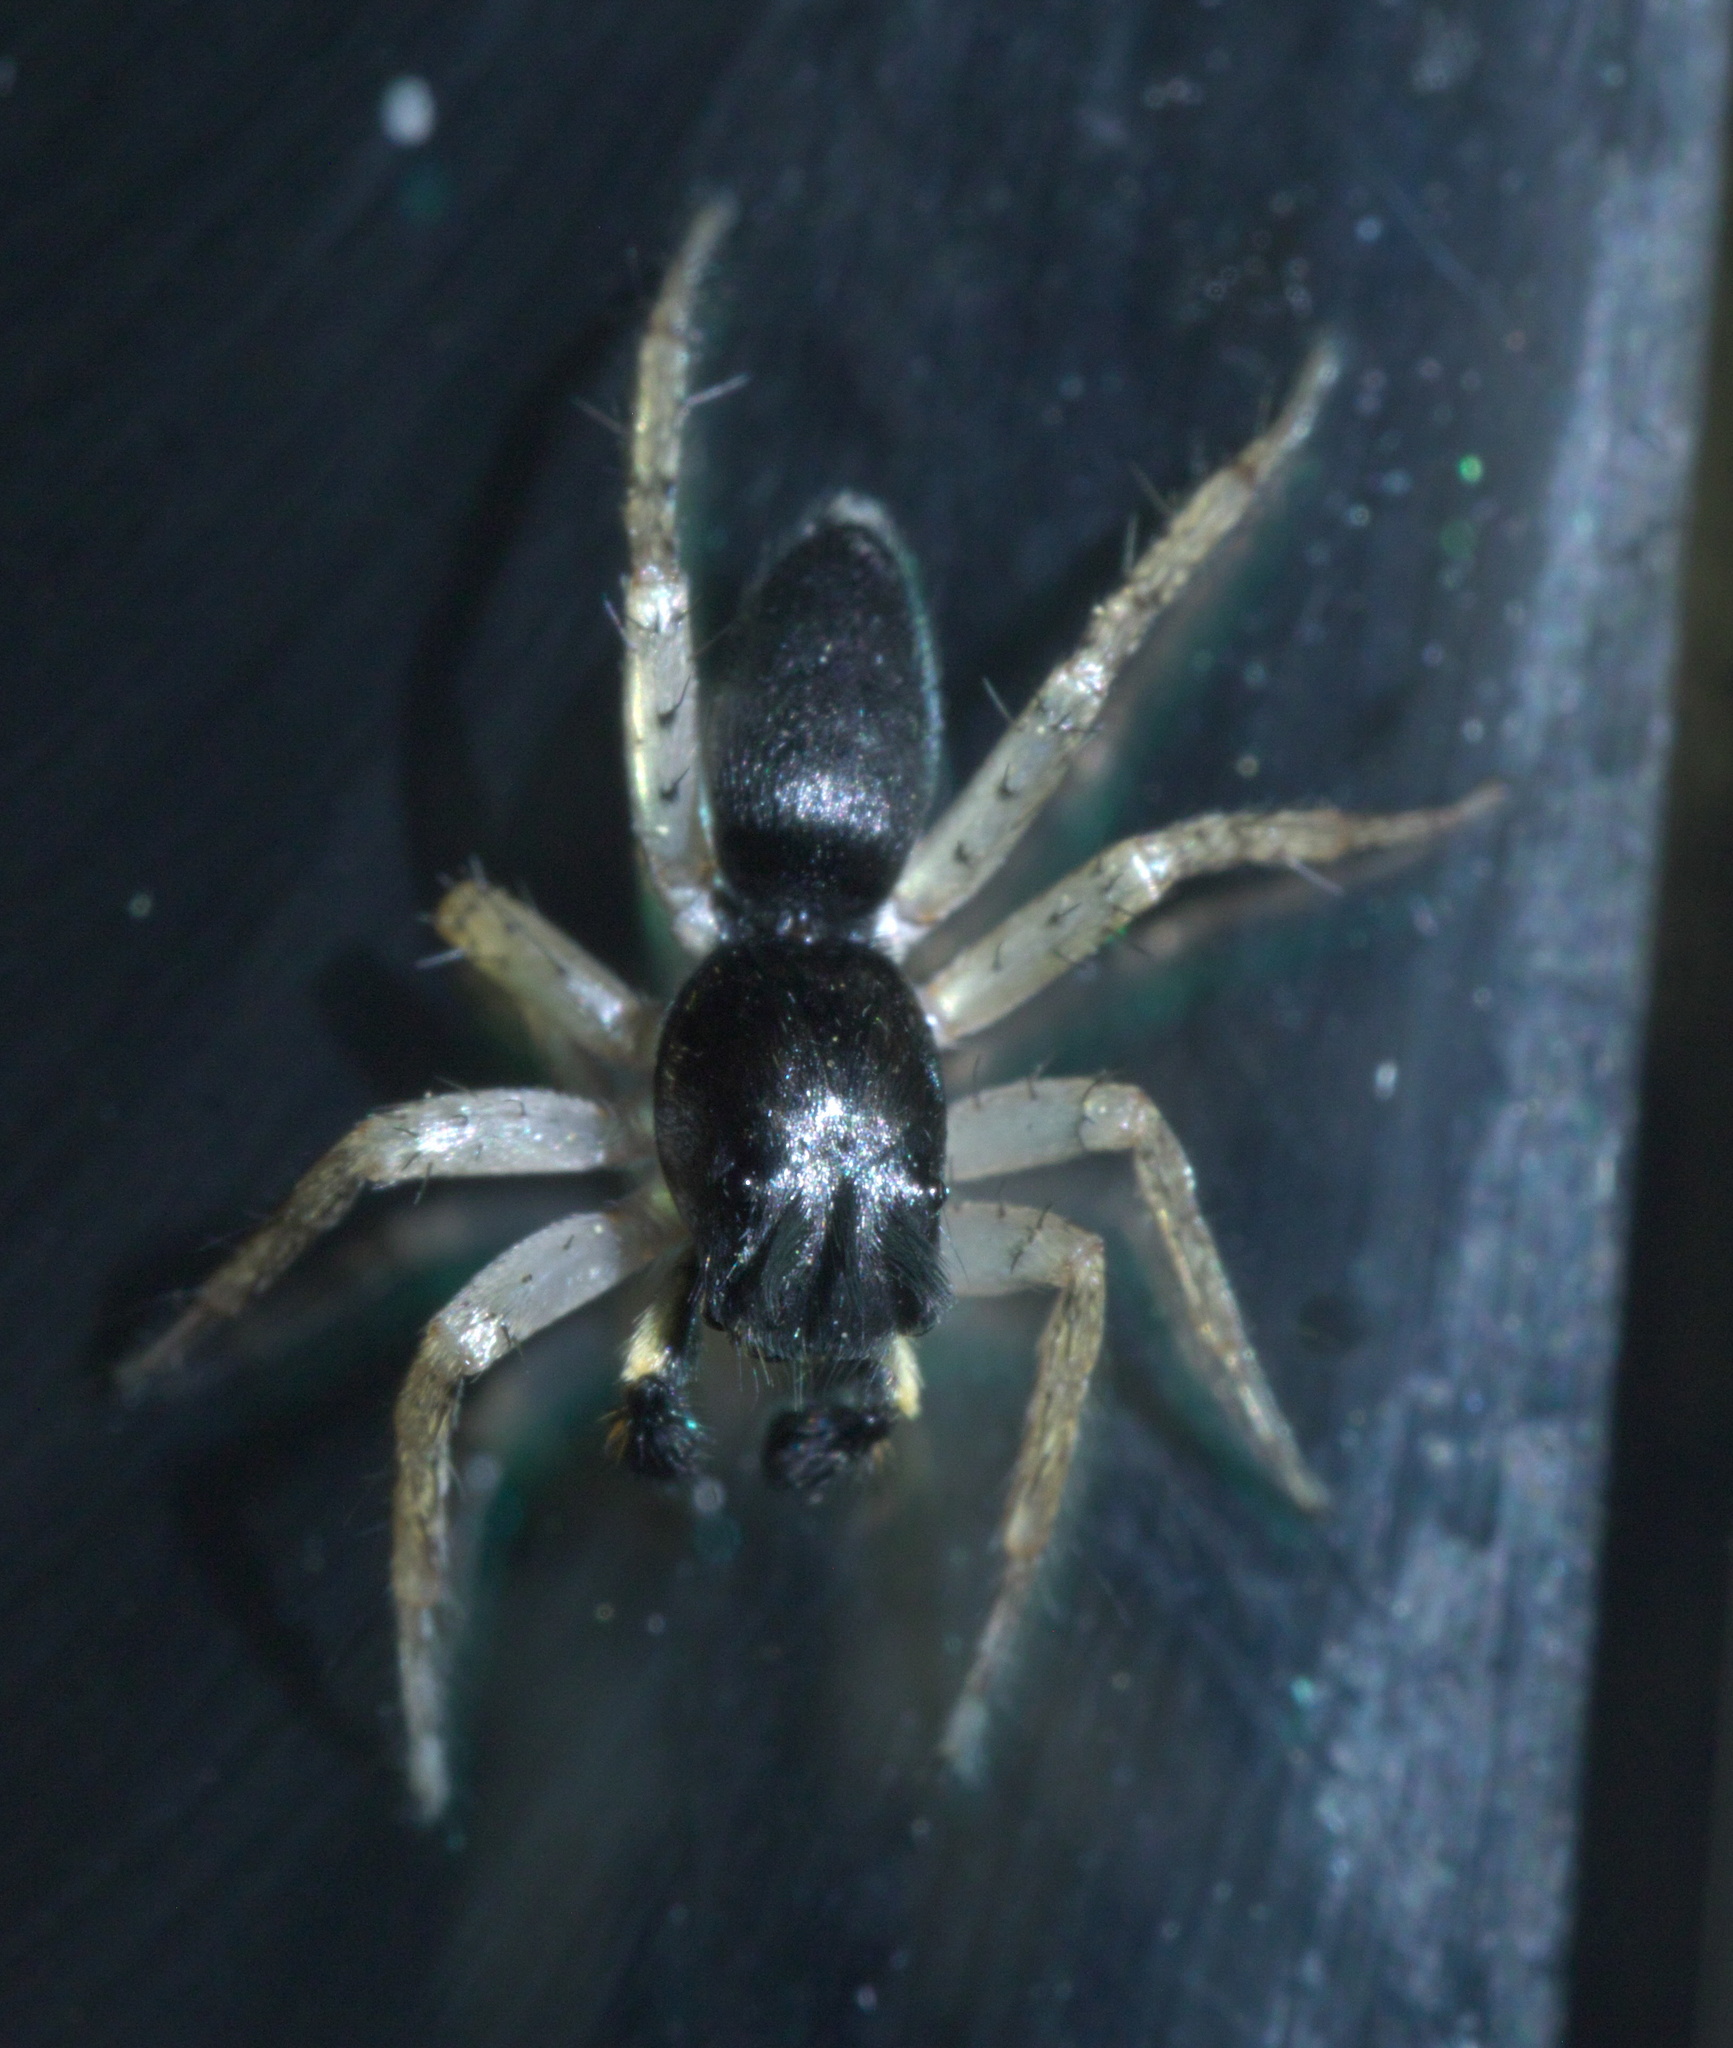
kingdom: Animalia
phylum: Arthropoda
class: Arachnida
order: Araneae
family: Salticidae
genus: Maevia
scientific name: Maevia inclemens
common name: Dimorphic jumper
